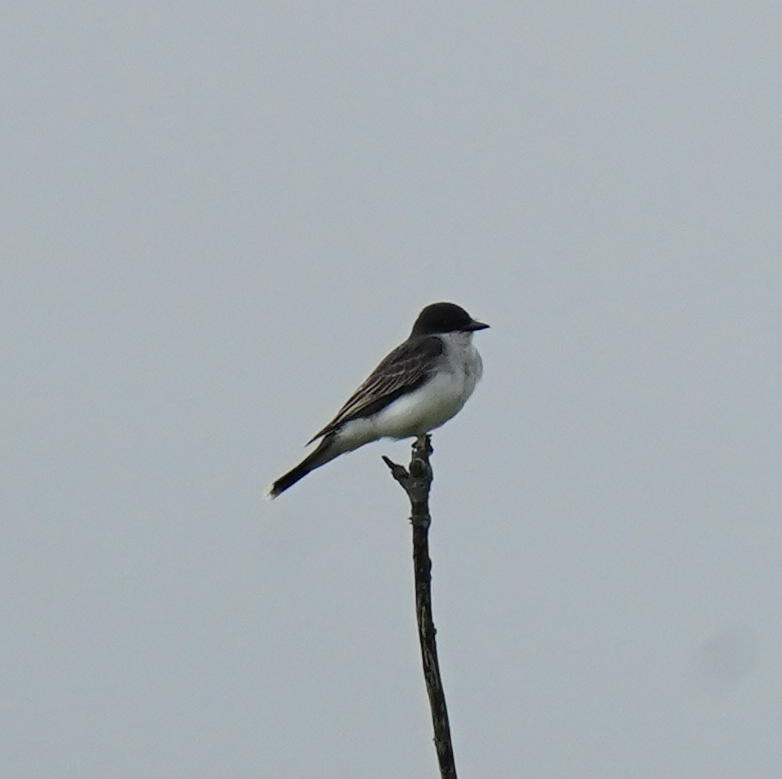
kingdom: Animalia
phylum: Chordata
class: Aves
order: Passeriformes
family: Tyrannidae
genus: Tyrannus
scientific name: Tyrannus tyrannus
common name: Eastern kingbird
